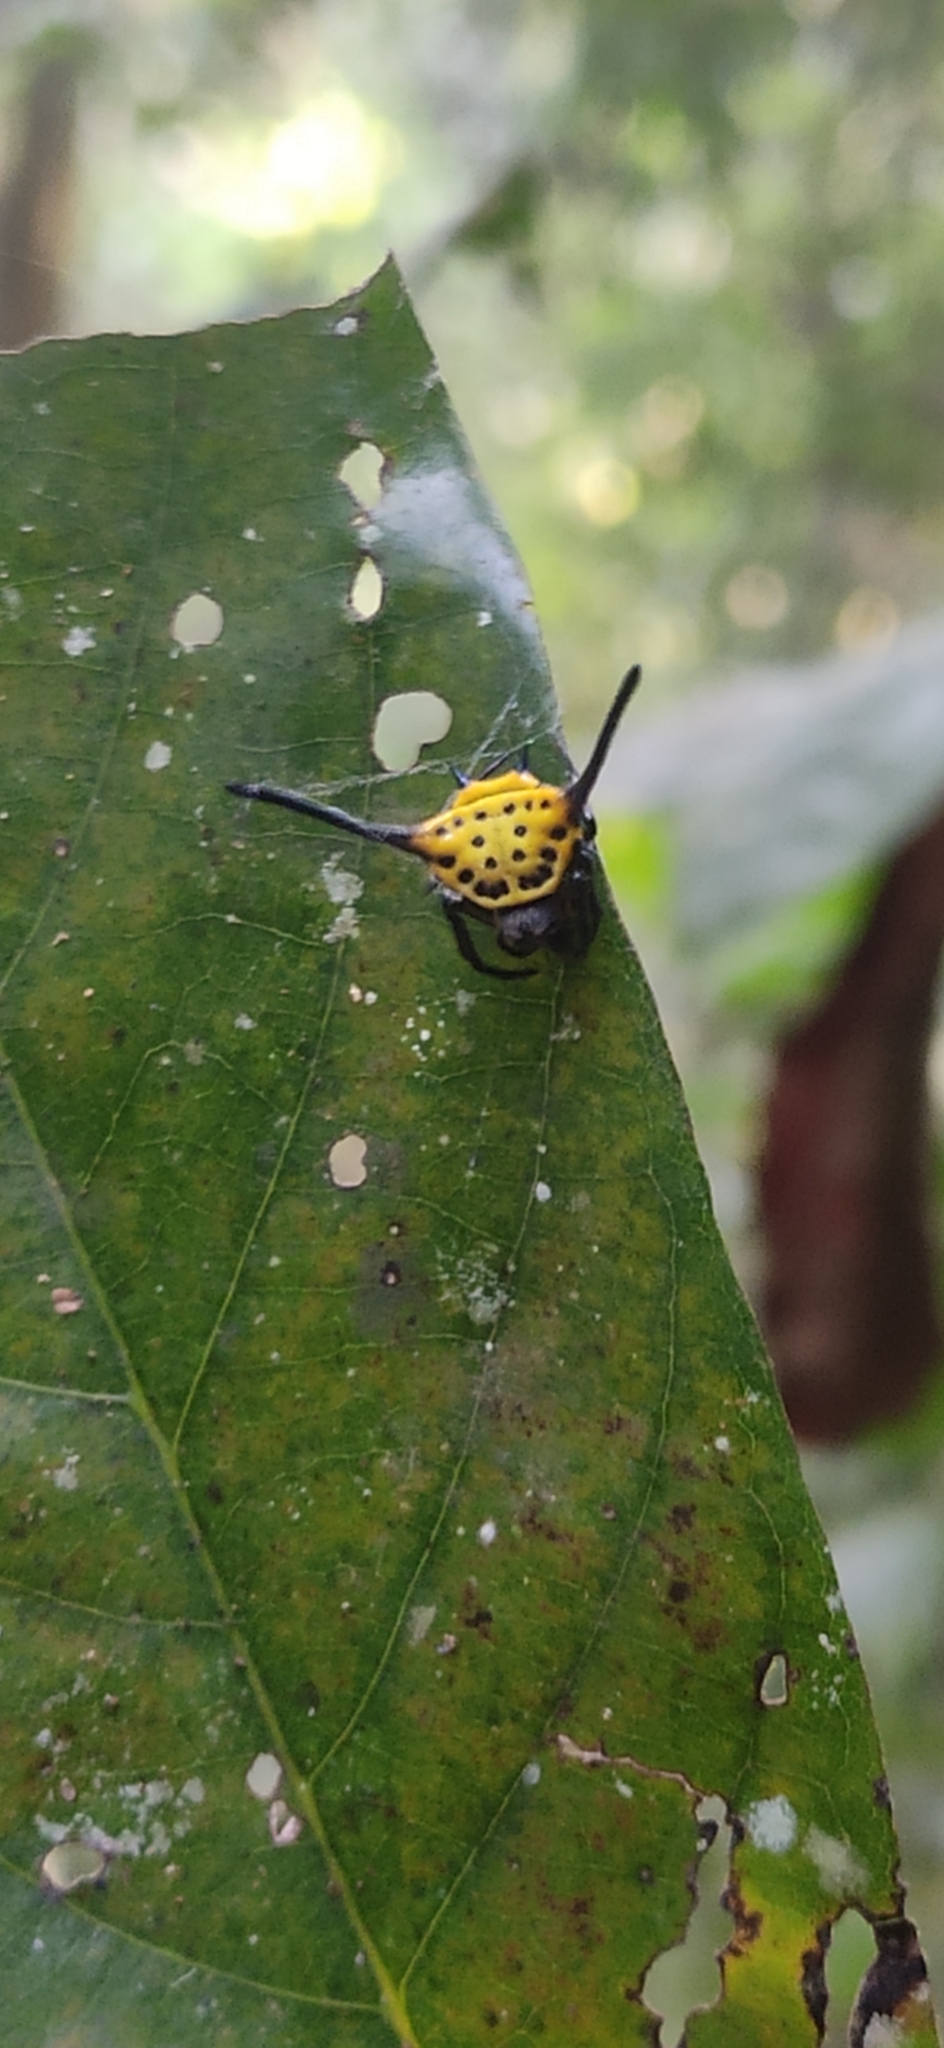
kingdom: Animalia
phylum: Arthropoda
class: Arachnida
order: Araneae
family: Araneidae
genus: Gasteracantha
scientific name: Gasteracantha dalyi
